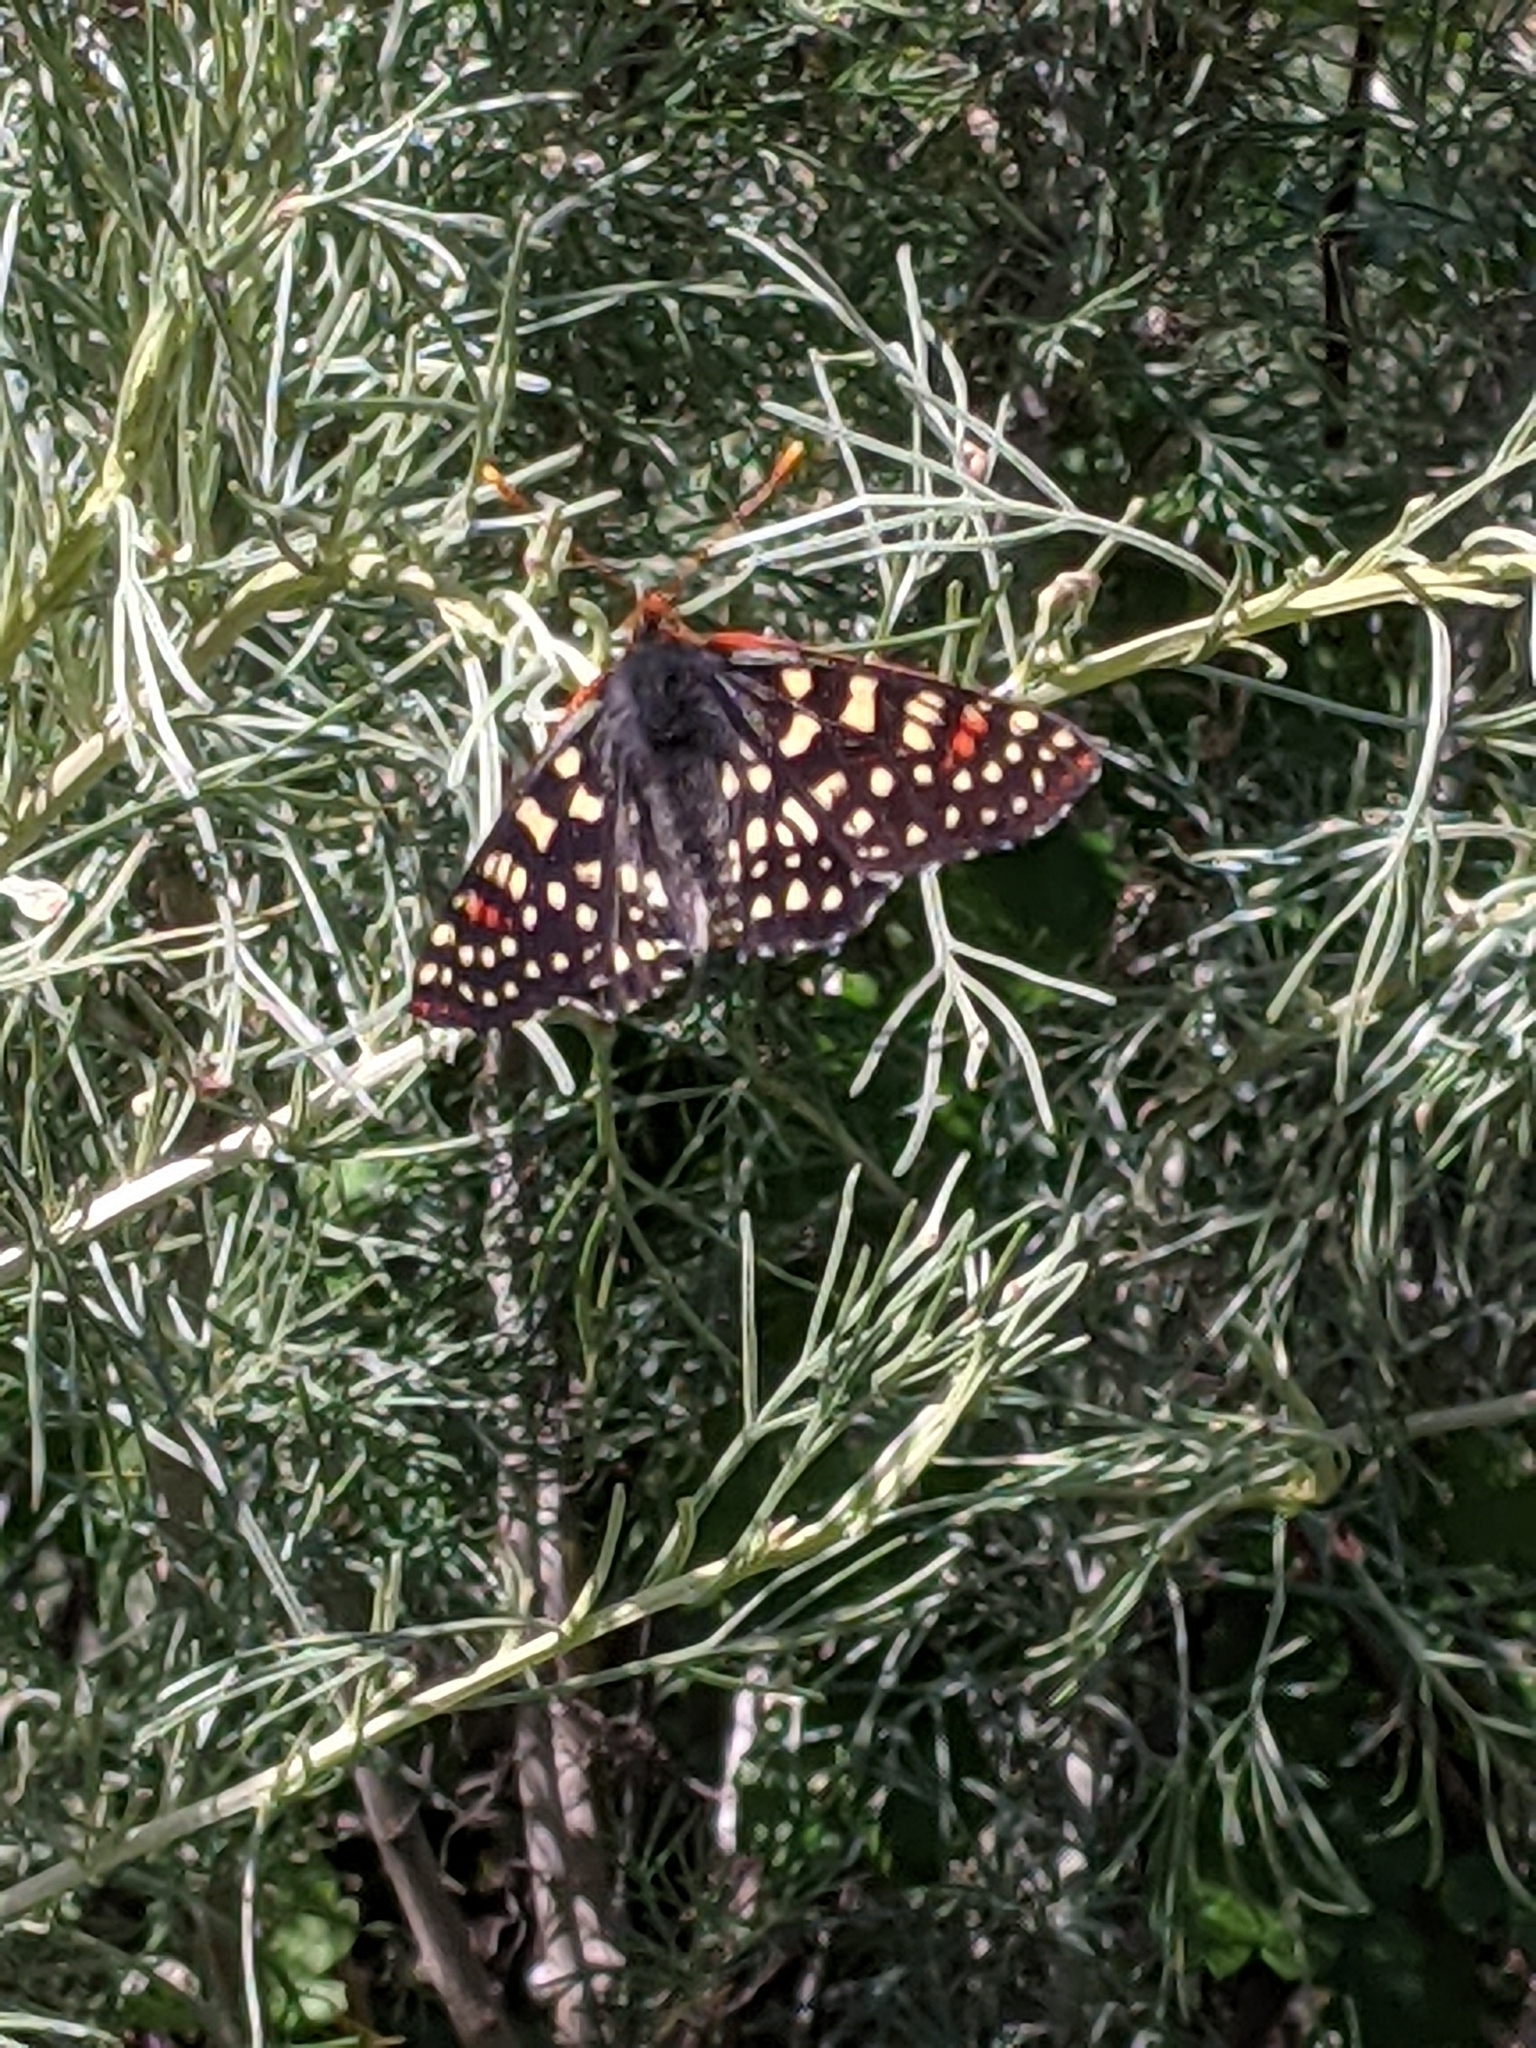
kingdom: Animalia
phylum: Arthropoda
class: Insecta
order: Lepidoptera
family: Nymphalidae
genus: Occidryas
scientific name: Occidryas chalcedona
